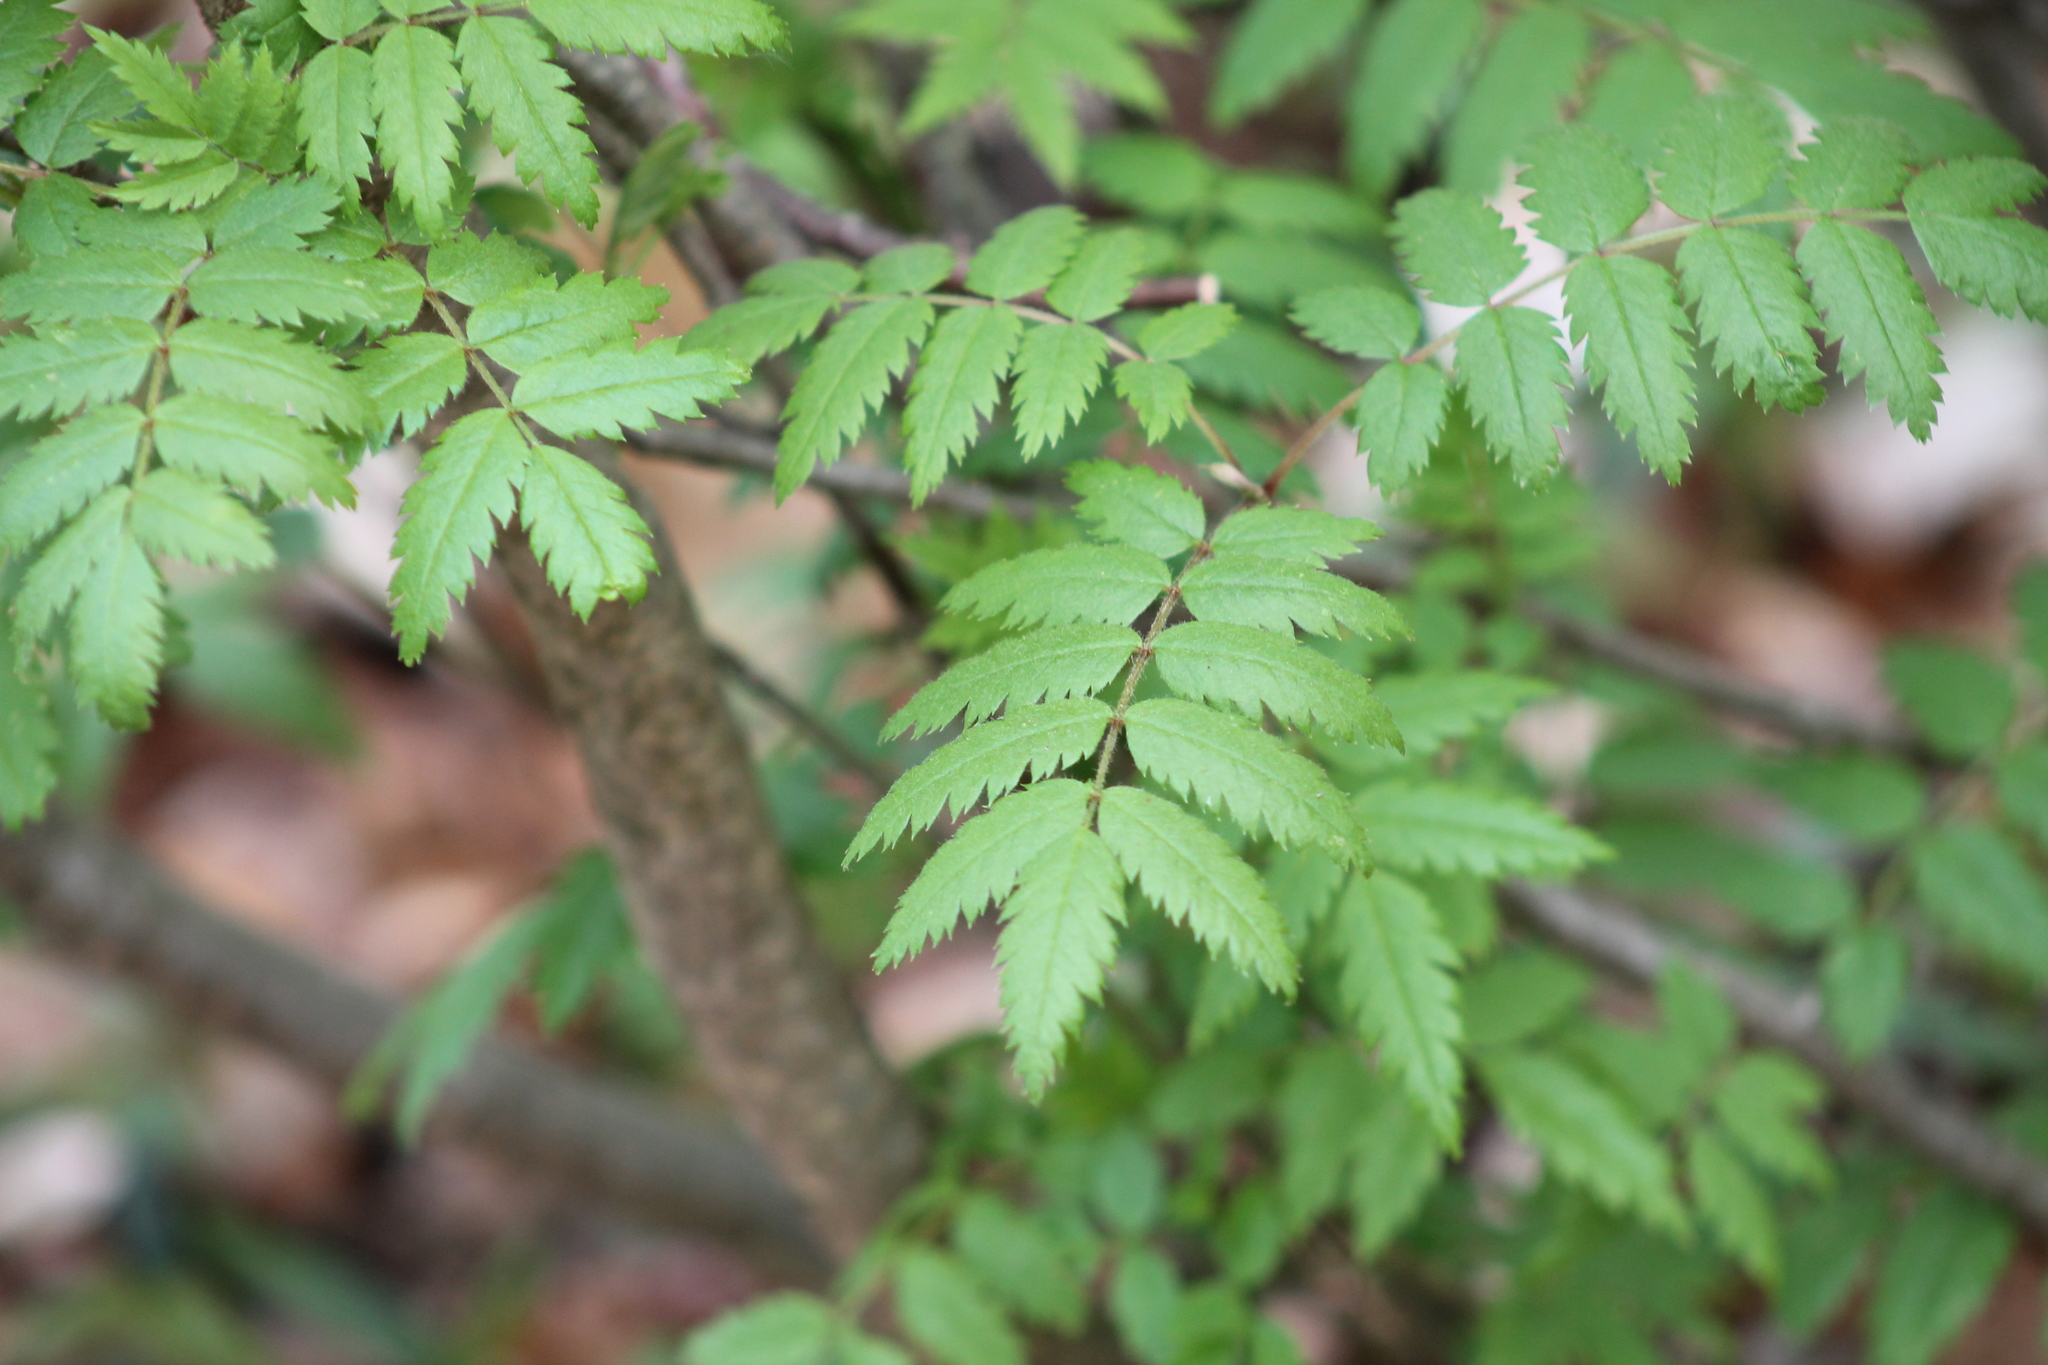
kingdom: Plantae
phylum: Tracheophyta
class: Magnoliopsida
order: Rosales
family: Rosaceae
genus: Sorbus
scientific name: Sorbus aucuparia
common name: Rowan
